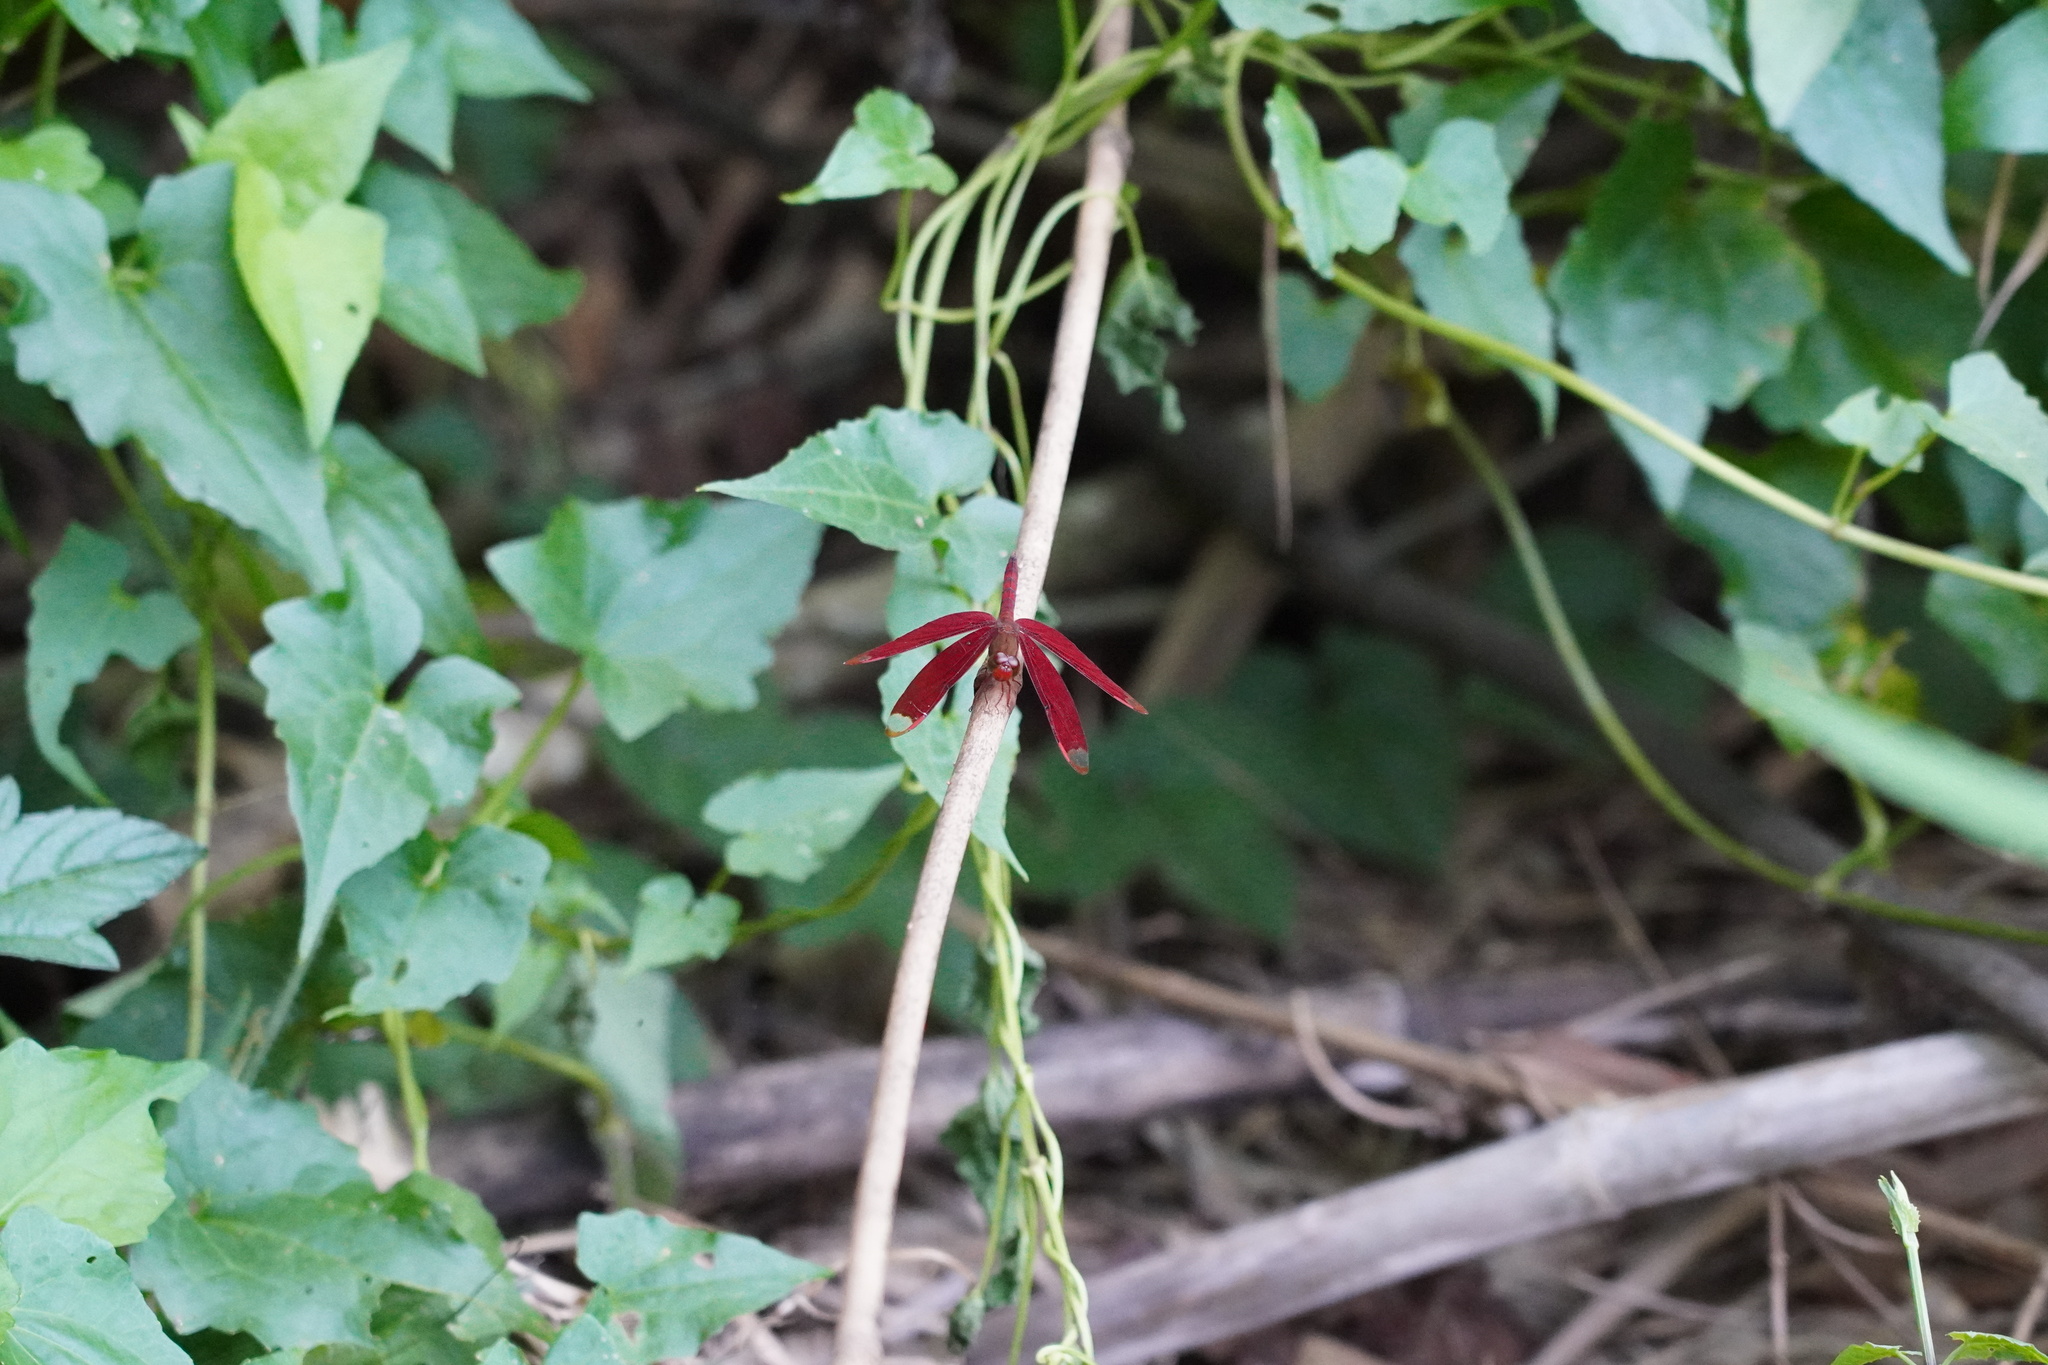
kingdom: Animalia
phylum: Arthropoda
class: Insecta
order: Odonata
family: Libellulidae
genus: Neurothemis
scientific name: Neurothemis fulvia
